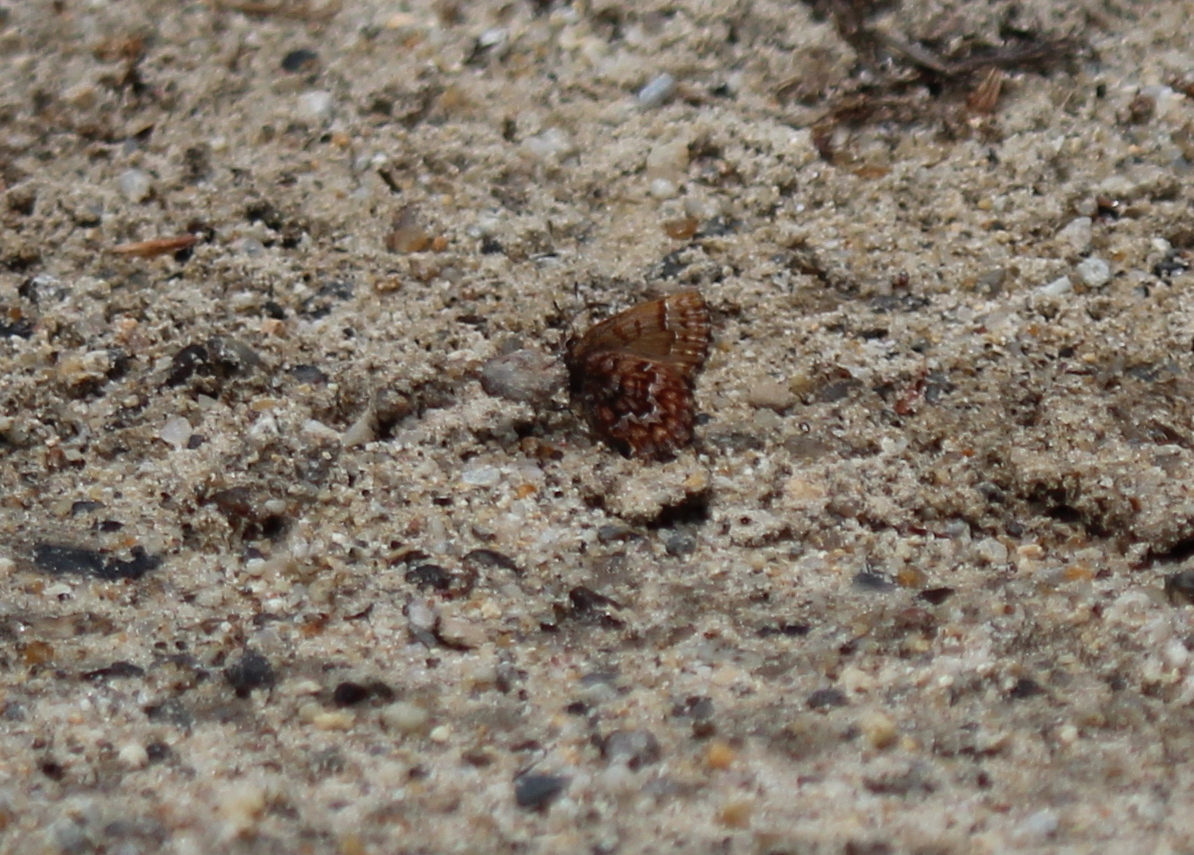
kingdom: Animalia
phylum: Arthropoda
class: Insecta
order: Lepidoptera
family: Lycaenidae
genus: Incisalia
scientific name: Incisalia niphon
